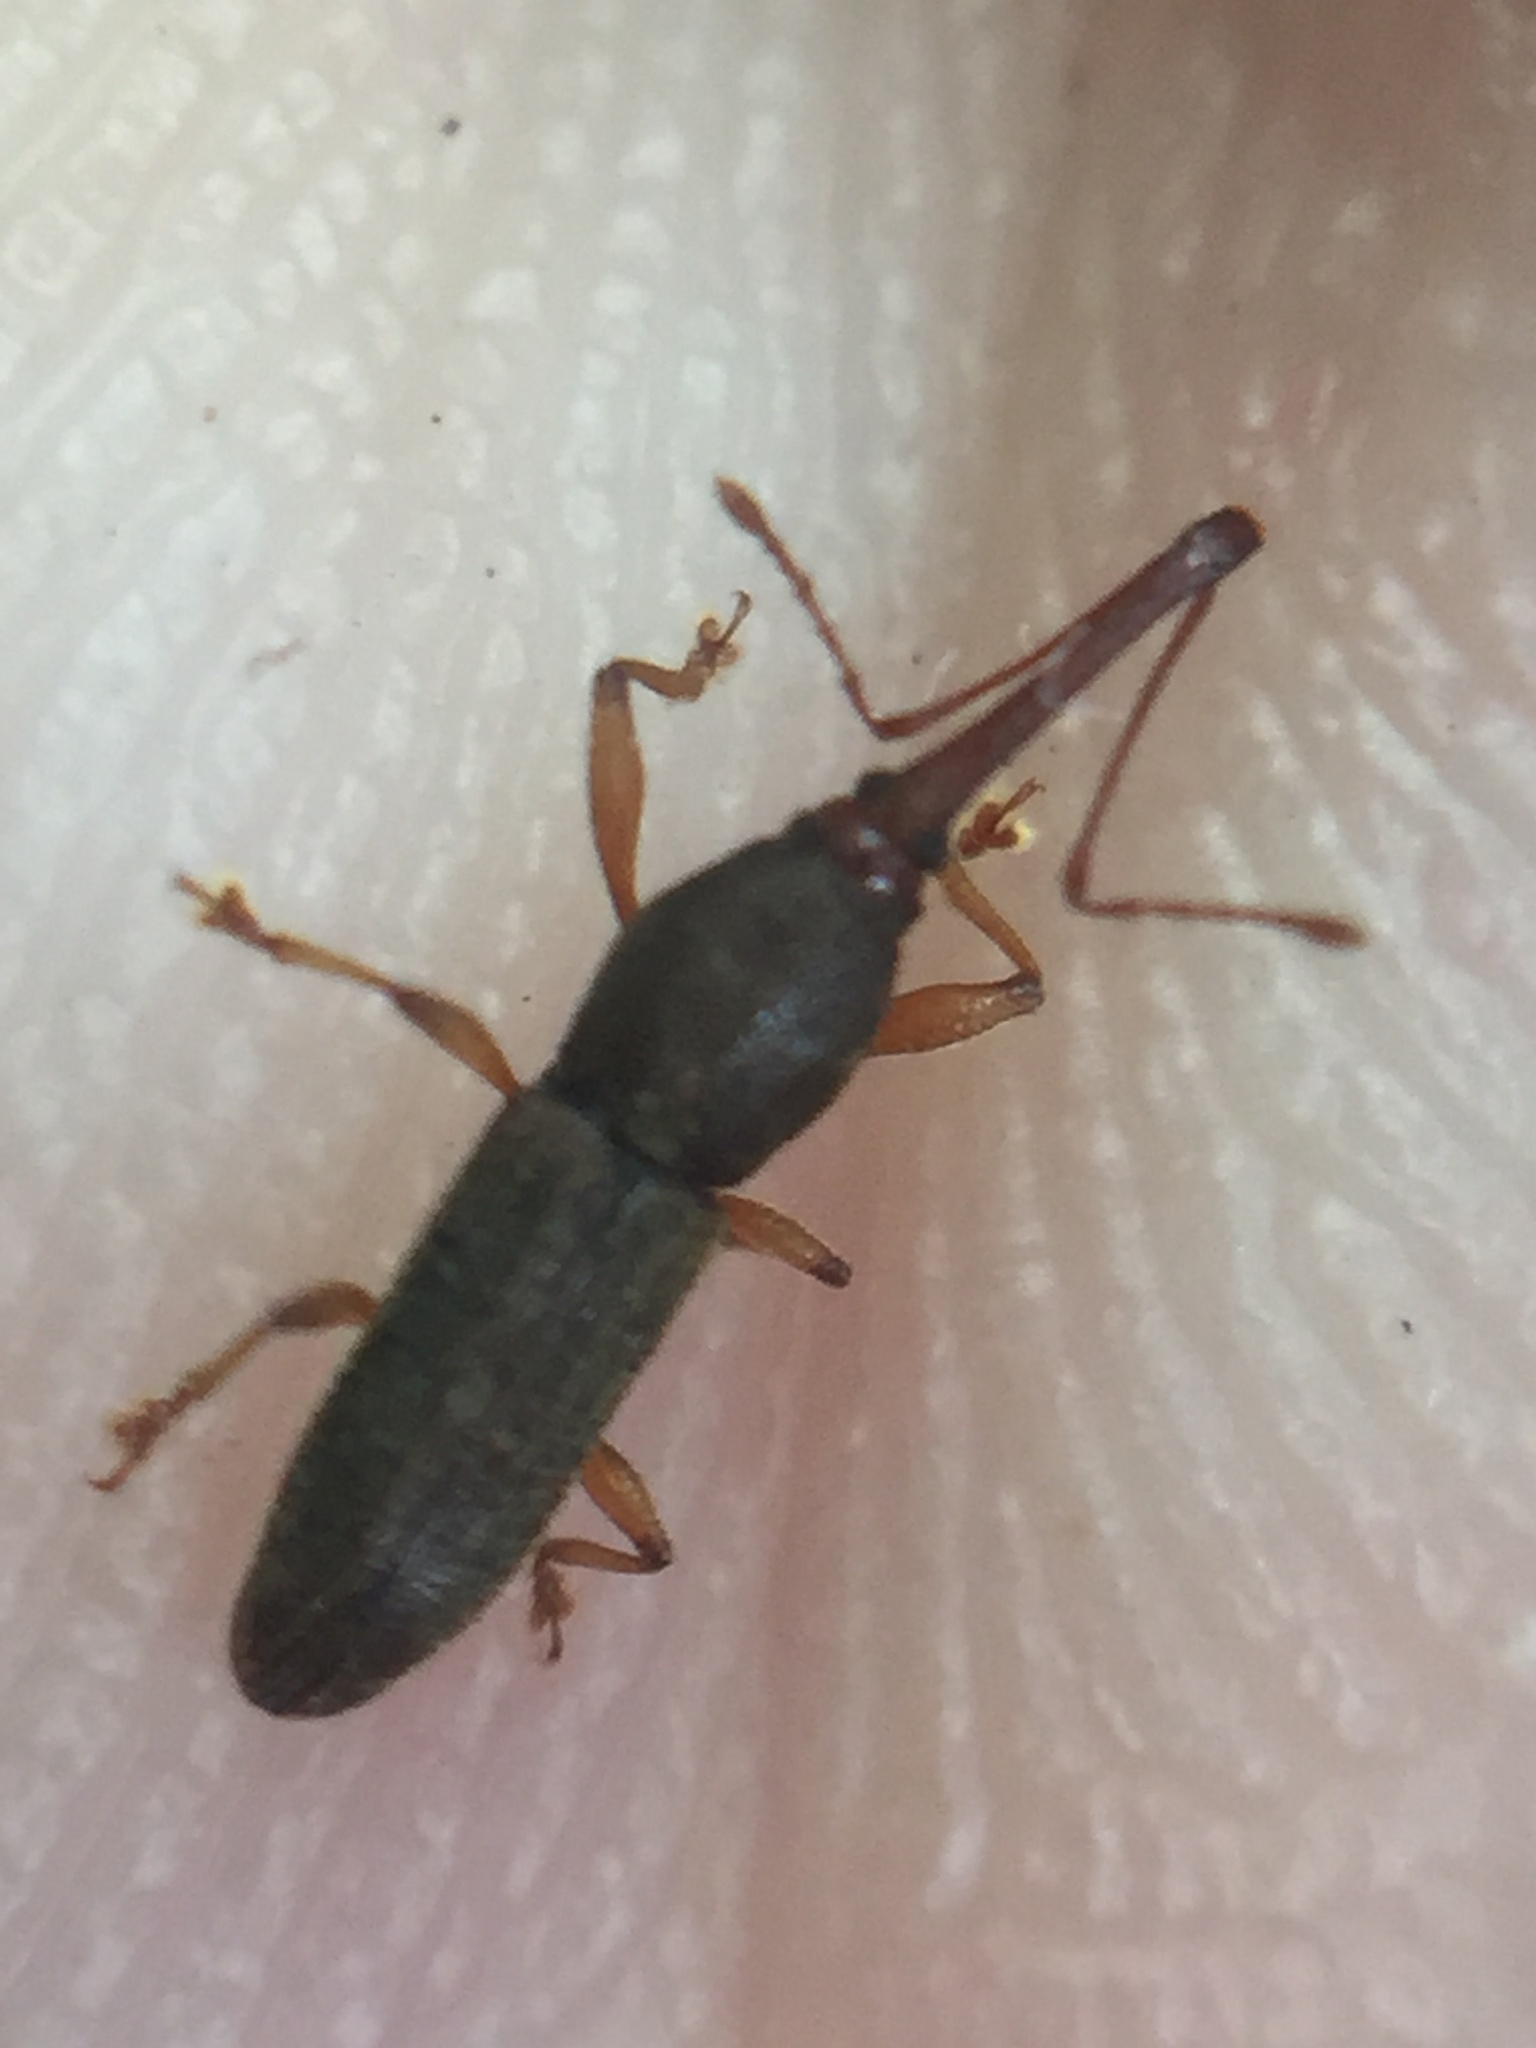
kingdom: Animalia
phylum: Arthropoda
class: Insecta
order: Coleoptera
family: Curculionidae
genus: Arecocryptus
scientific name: Arecocryptus bellus
